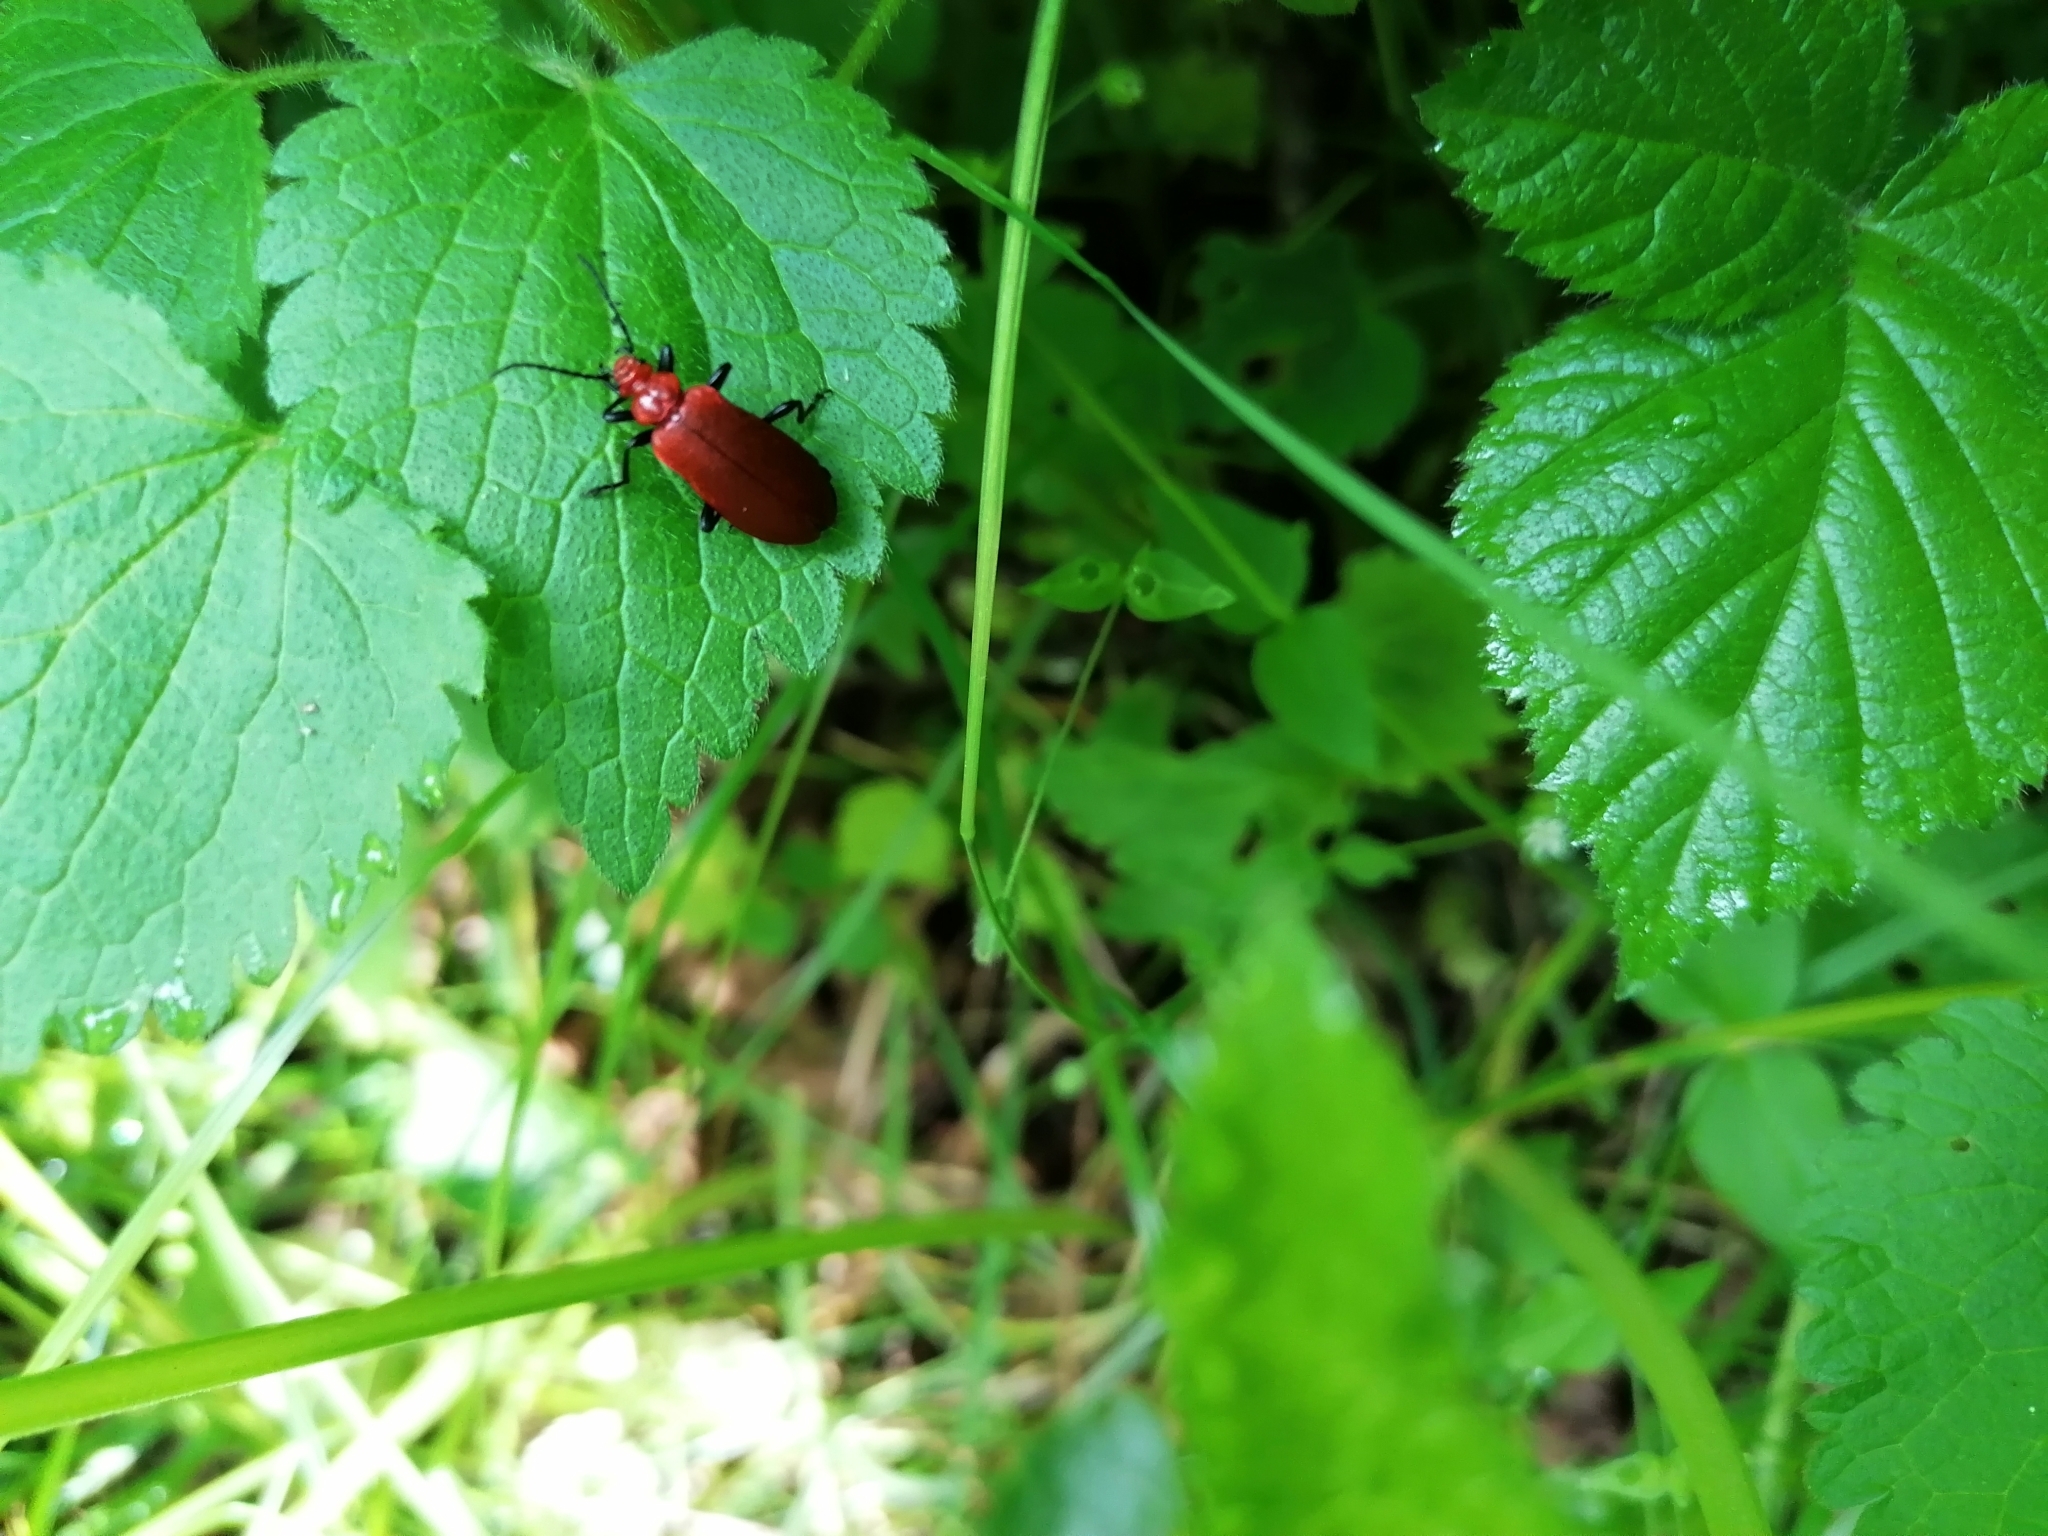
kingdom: Animalia
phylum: Arthropoda
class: Insecta
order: Coleoptera
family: Pyrochroidae
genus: Pyrochroa
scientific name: Pyrochroa serraticornis
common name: Red-headed cardinal beetle
